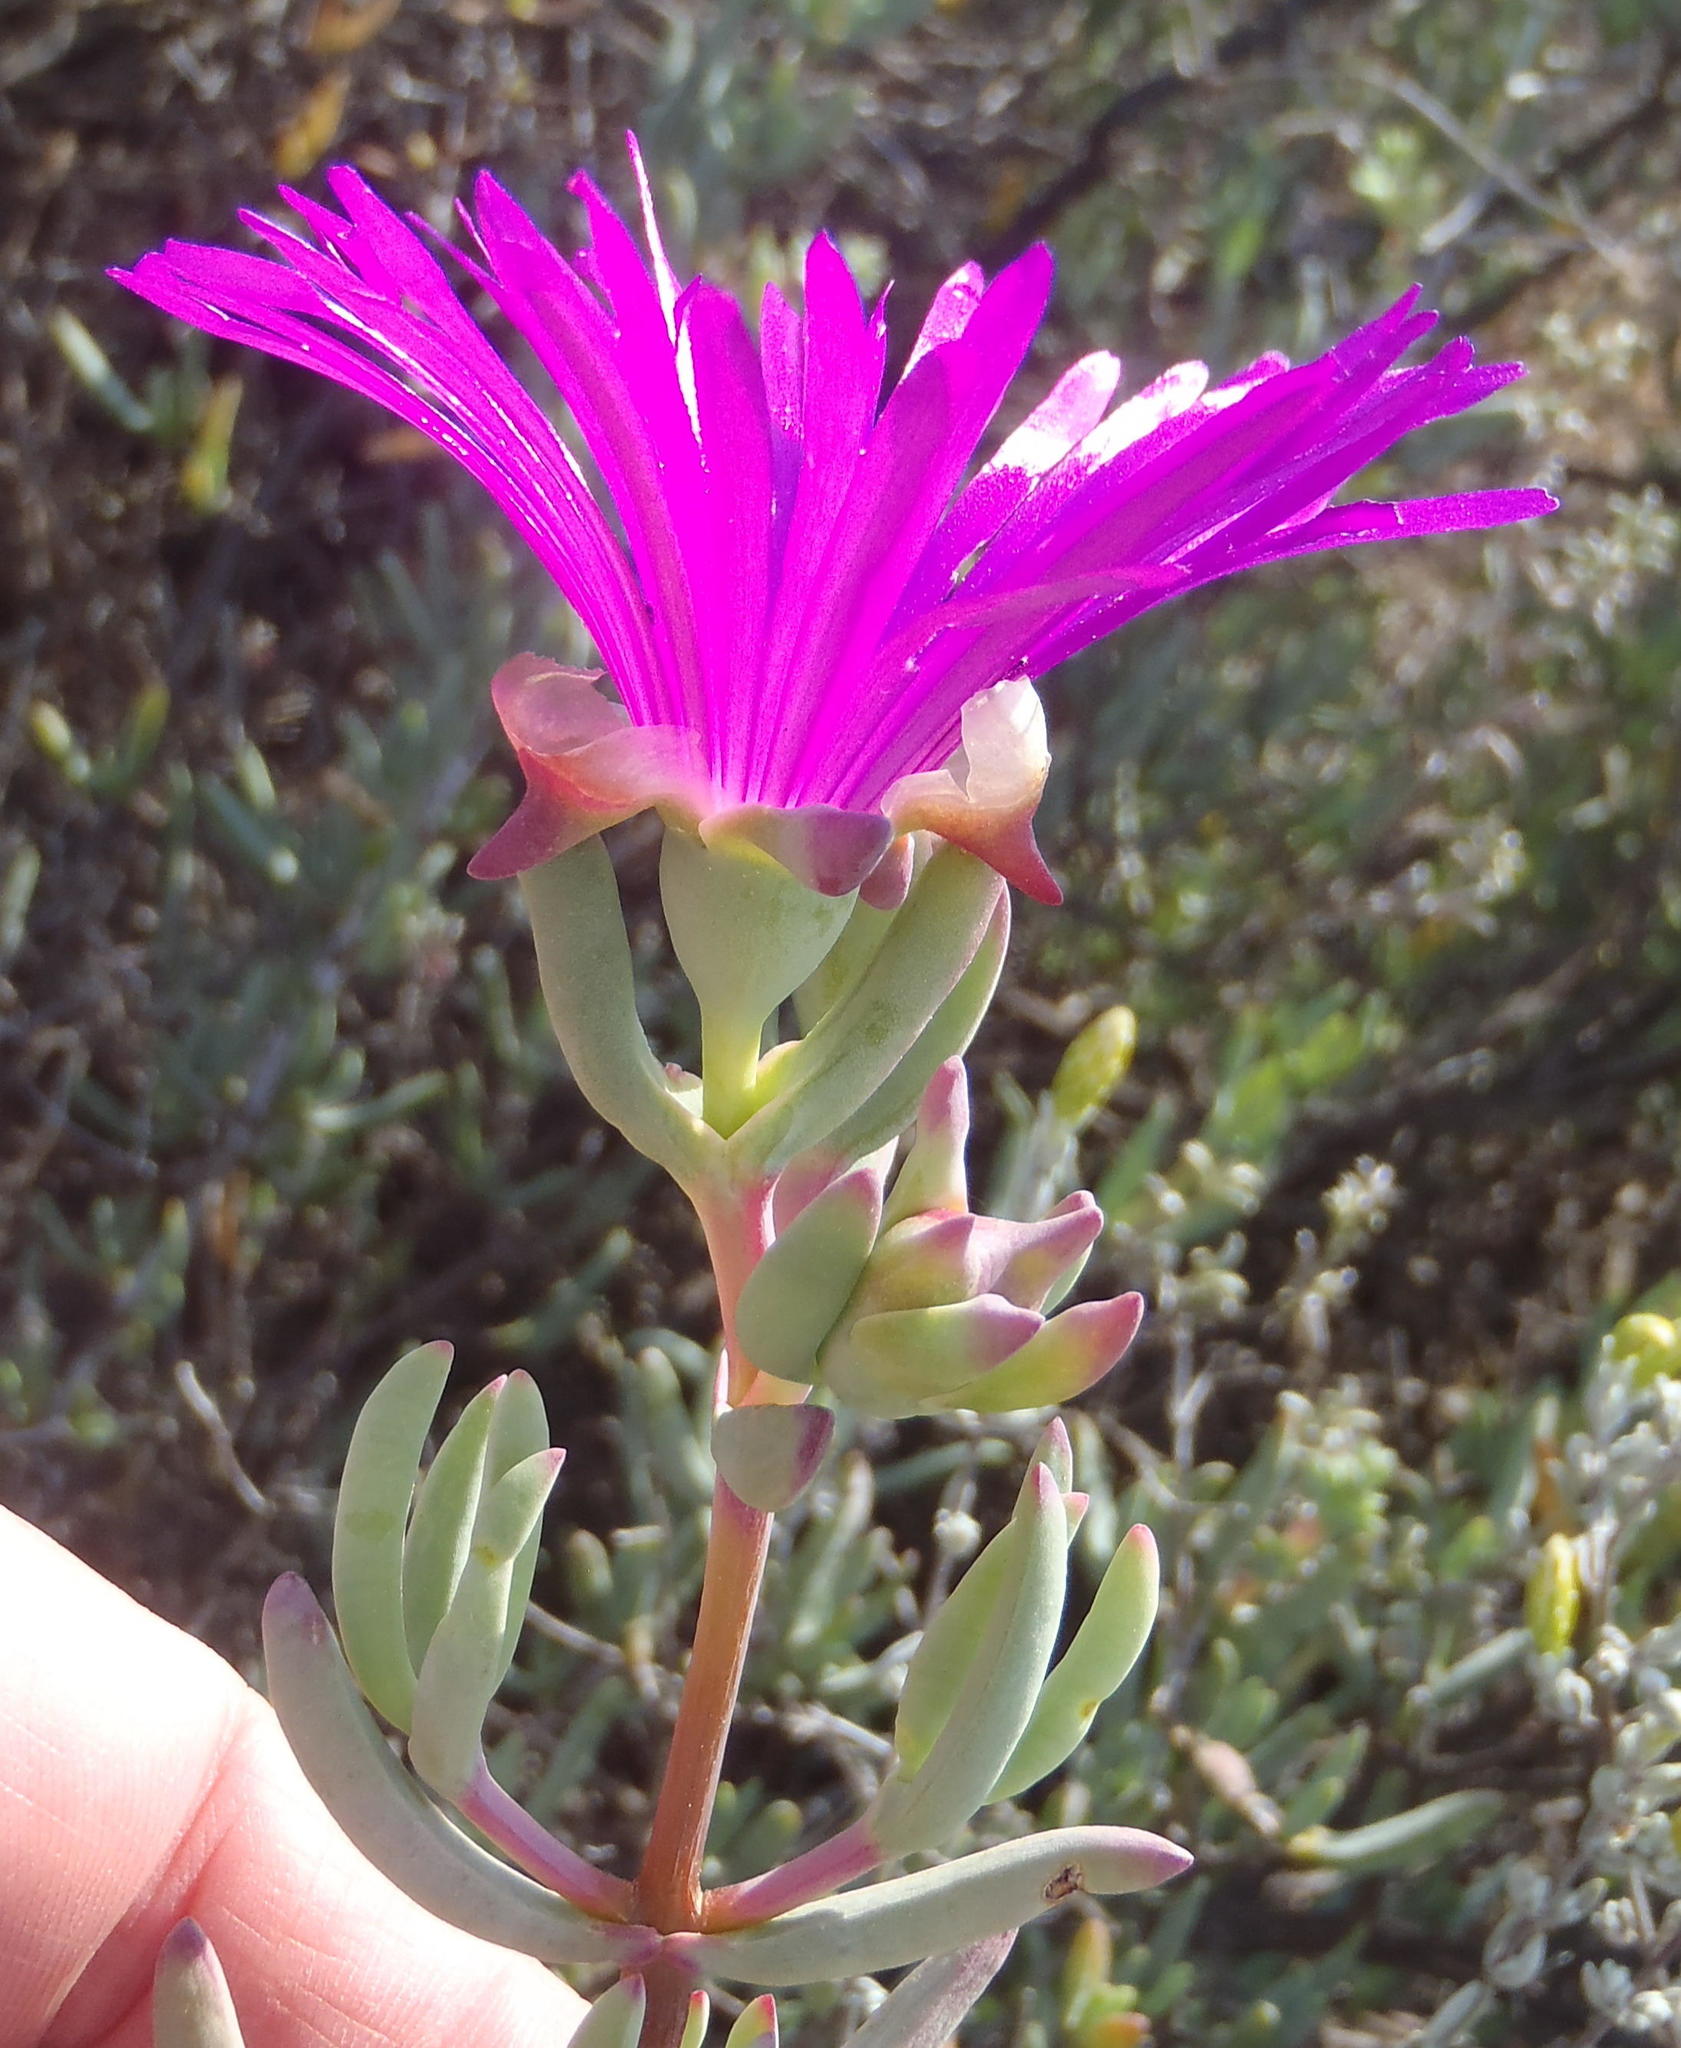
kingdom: Plantae
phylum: Tracheophyta
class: Magnoliopsida
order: Caryophyllales
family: Aizoaceae
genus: Lampranthus
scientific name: Lampranthus haworthii
